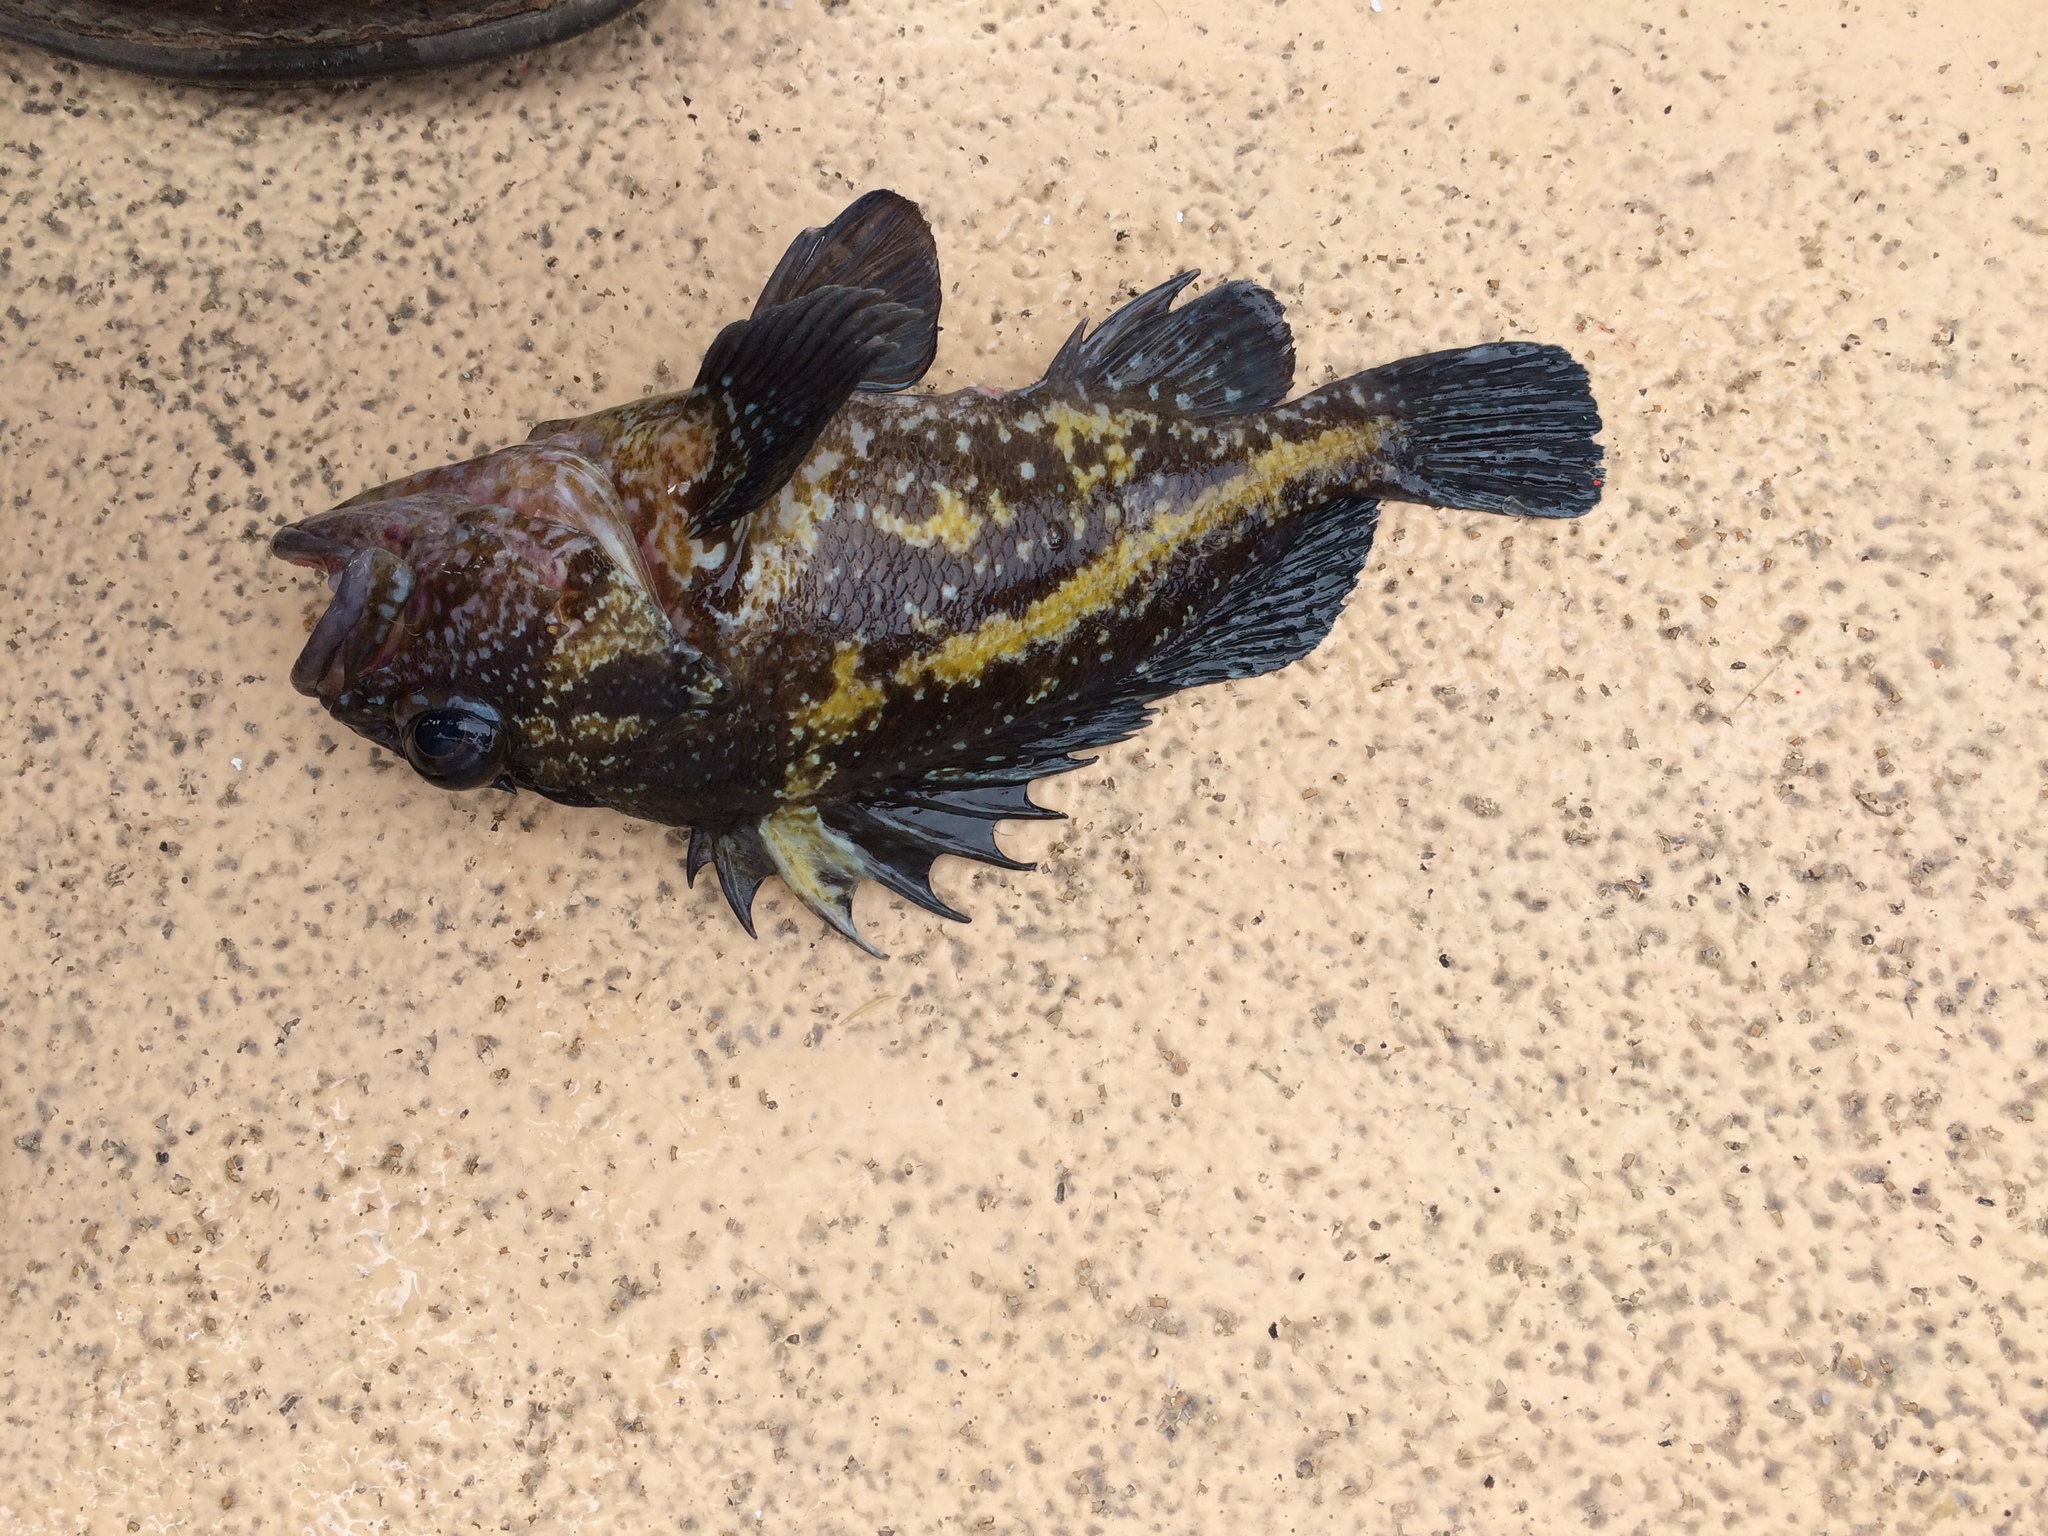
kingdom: Animalia
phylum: Chordata
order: Scorpaeniformes
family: Sebastidae
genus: Sebastes
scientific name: Sebastes nebulosus
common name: China rockfish
